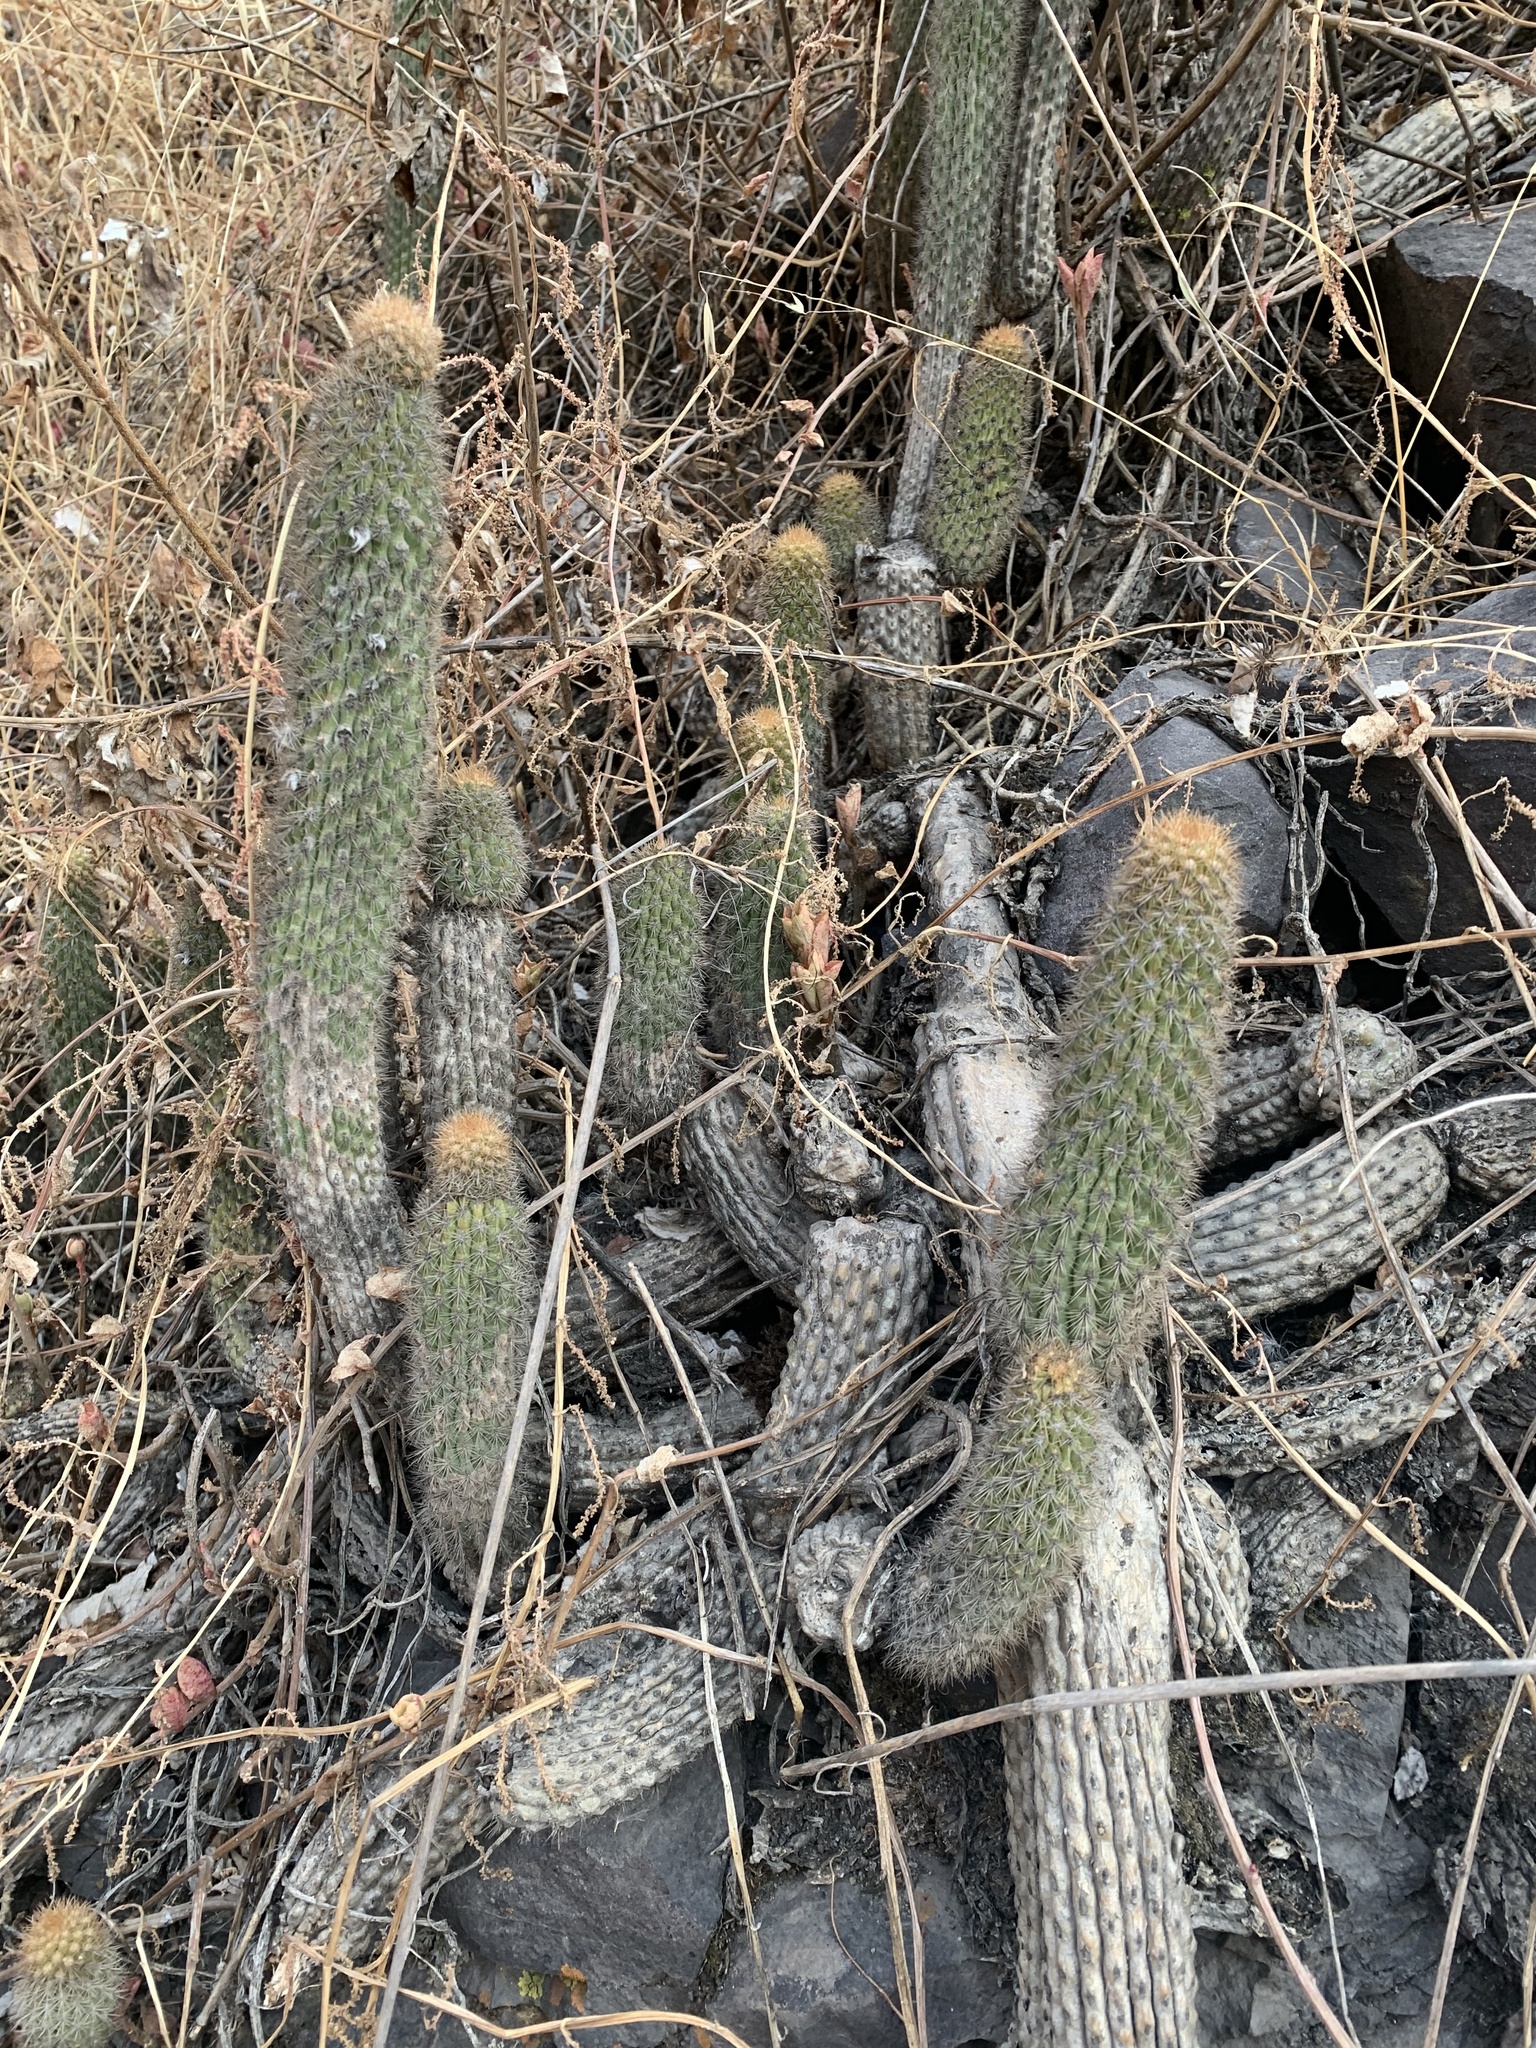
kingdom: Plantae
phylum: Tracheophyta
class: Magnoliopsida
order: Caryophyllales
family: Cactaceae
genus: Borzicactus
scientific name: Borzicactus acanthurus
